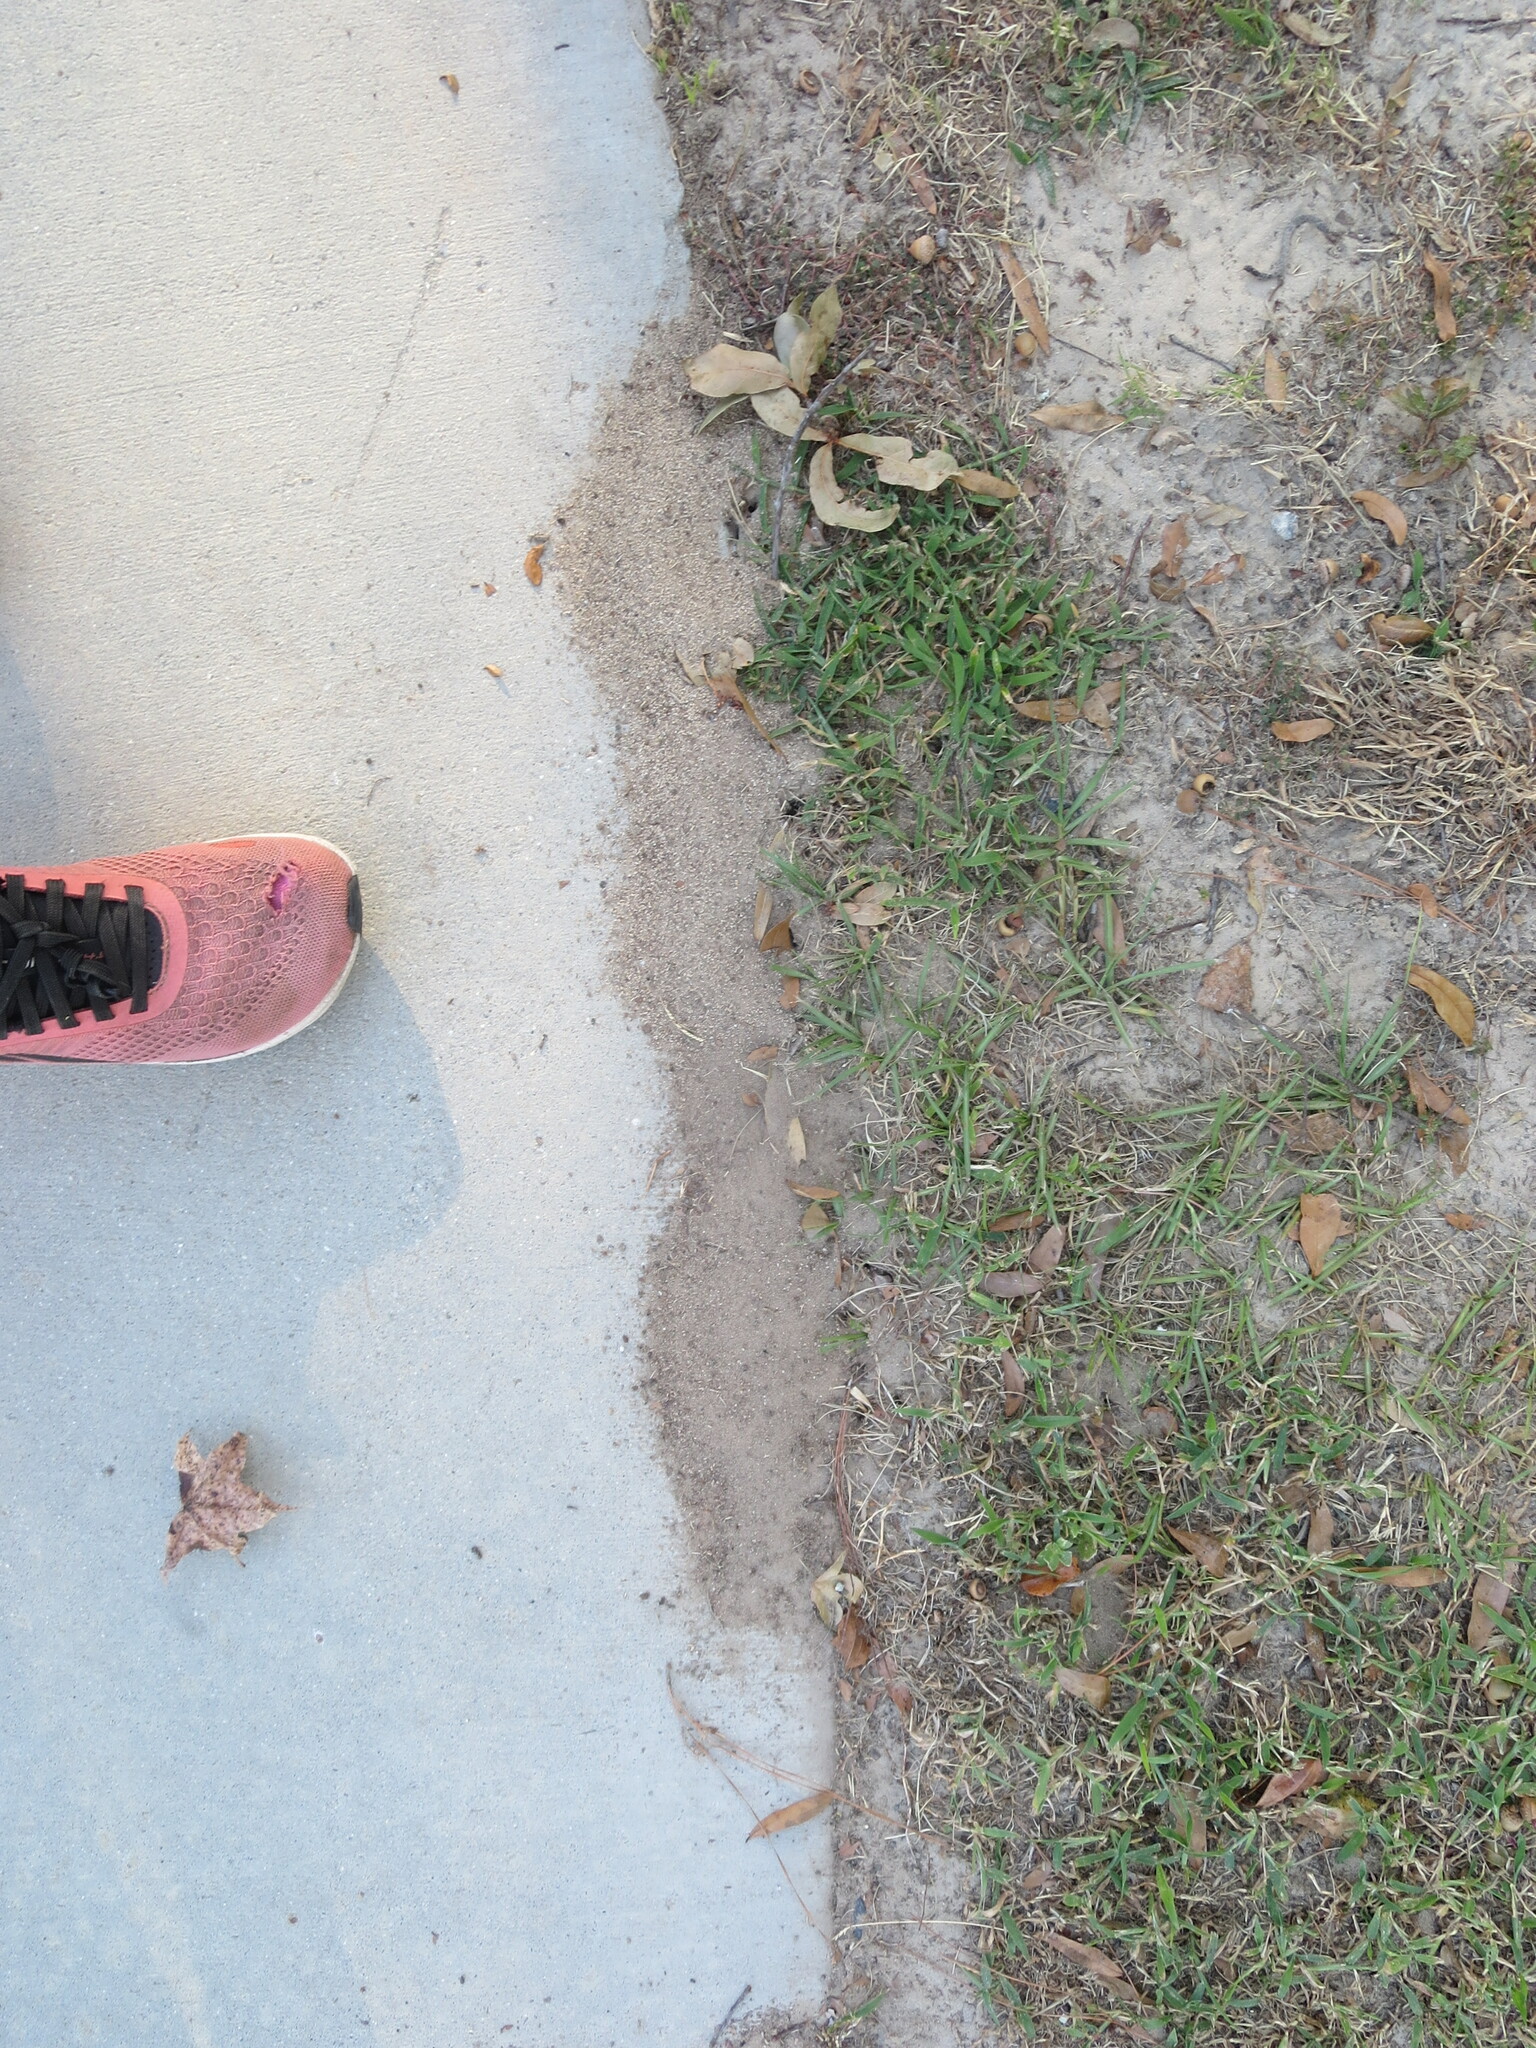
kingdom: Animalia
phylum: Arthropoda
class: Insecta
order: Hymenoptera
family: Formicidae
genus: Solenopsis
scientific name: Solenopsis invicta
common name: Red imported fire ant
